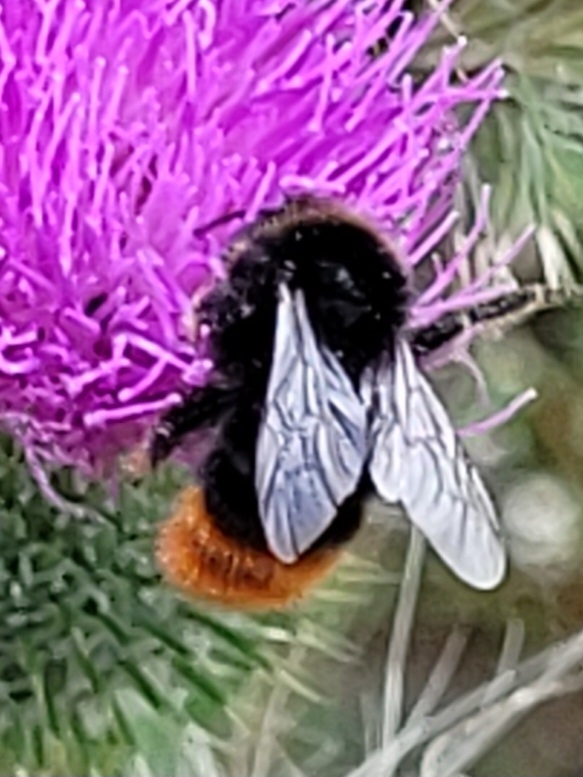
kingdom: Animalia
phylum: Arthropoda
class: Insecta
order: Hymenoptera
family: Apidae
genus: Bombus
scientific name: Bombus lapidarius
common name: Large red-tailed humble-bee
